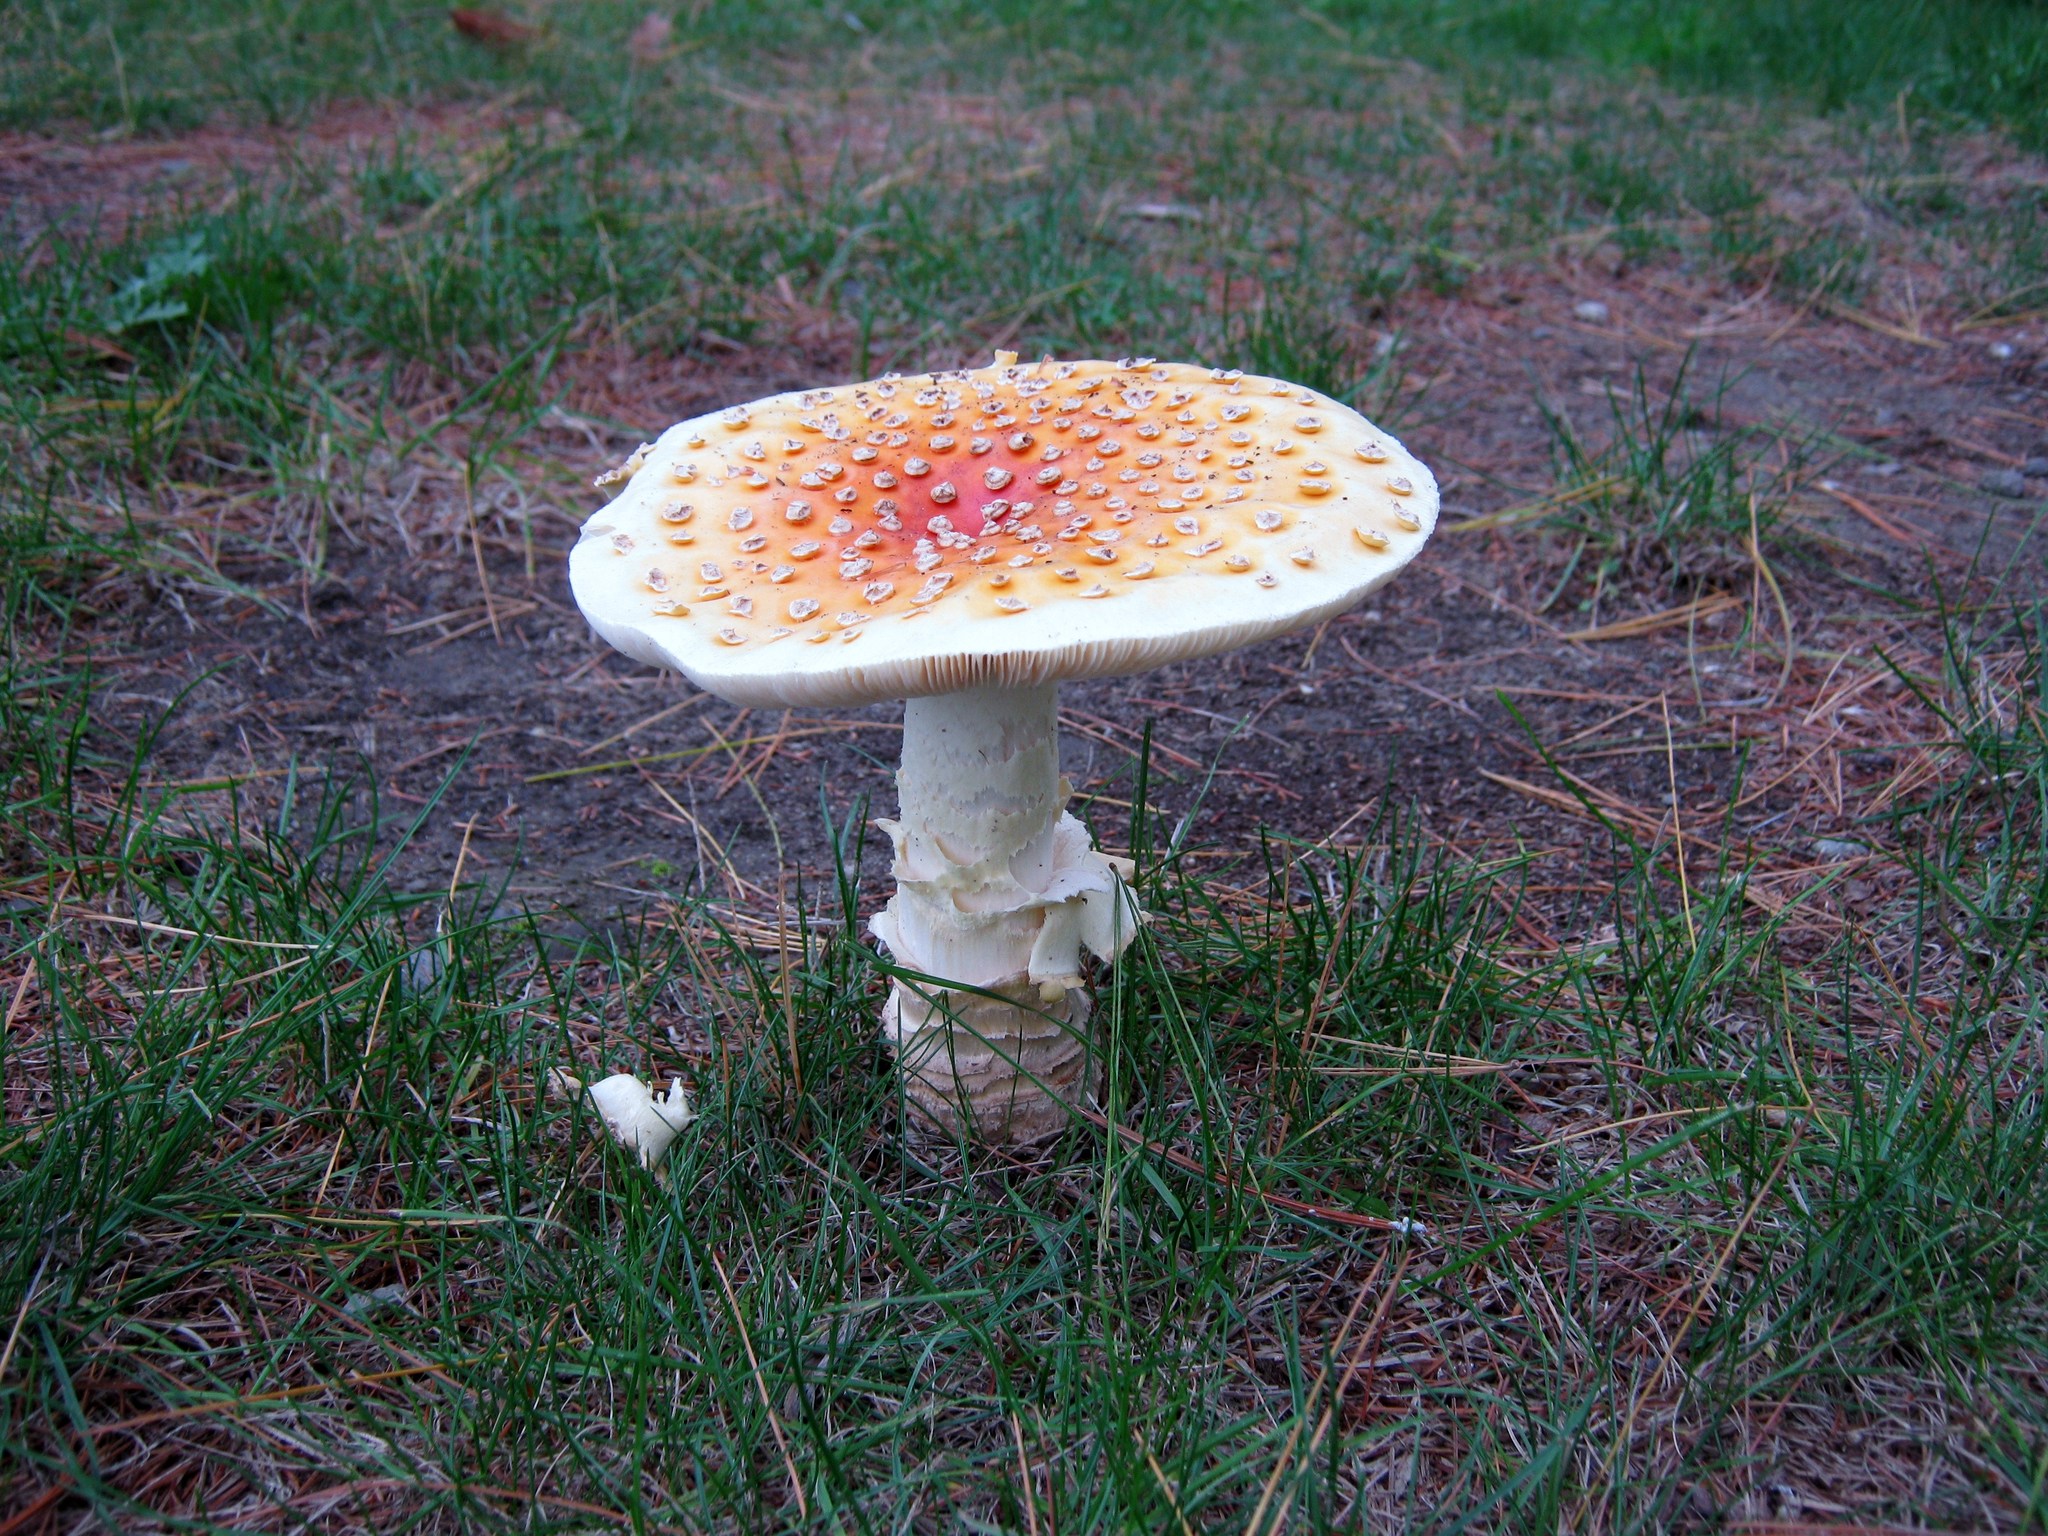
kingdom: Fungi
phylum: Basidiomycota
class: Agaricomycetes
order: Agaricales
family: Amanitaceae
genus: Amanita
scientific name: Amanita muscaria
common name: Fly agaric
